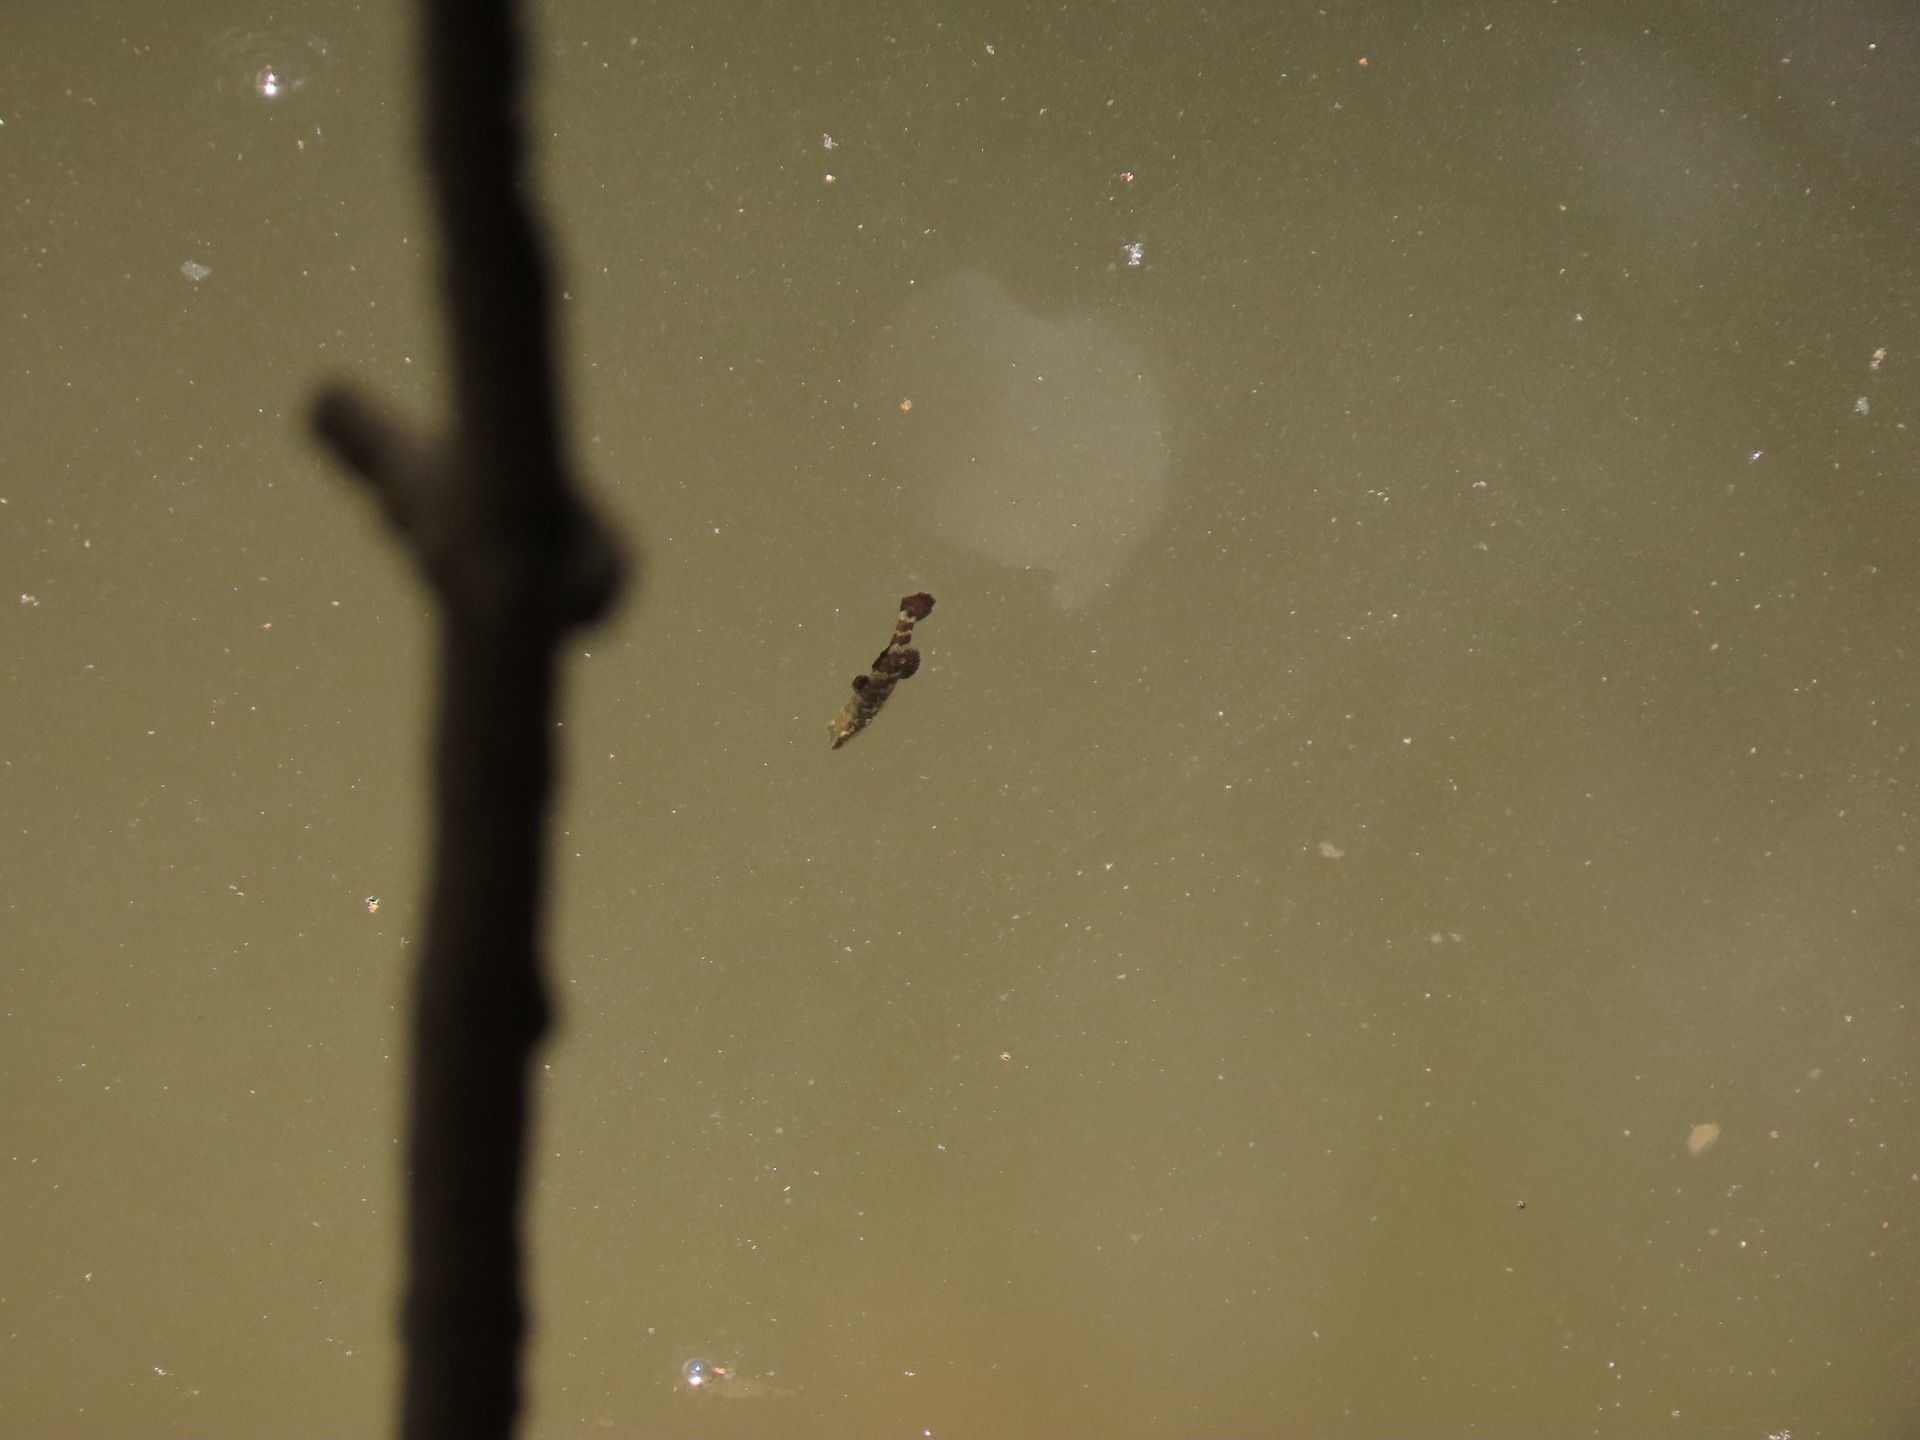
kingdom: Animalia
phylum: Chordata
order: Perciformes
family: Eleotridae
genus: Butis
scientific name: Butis butis
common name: Duckbill sleeper
